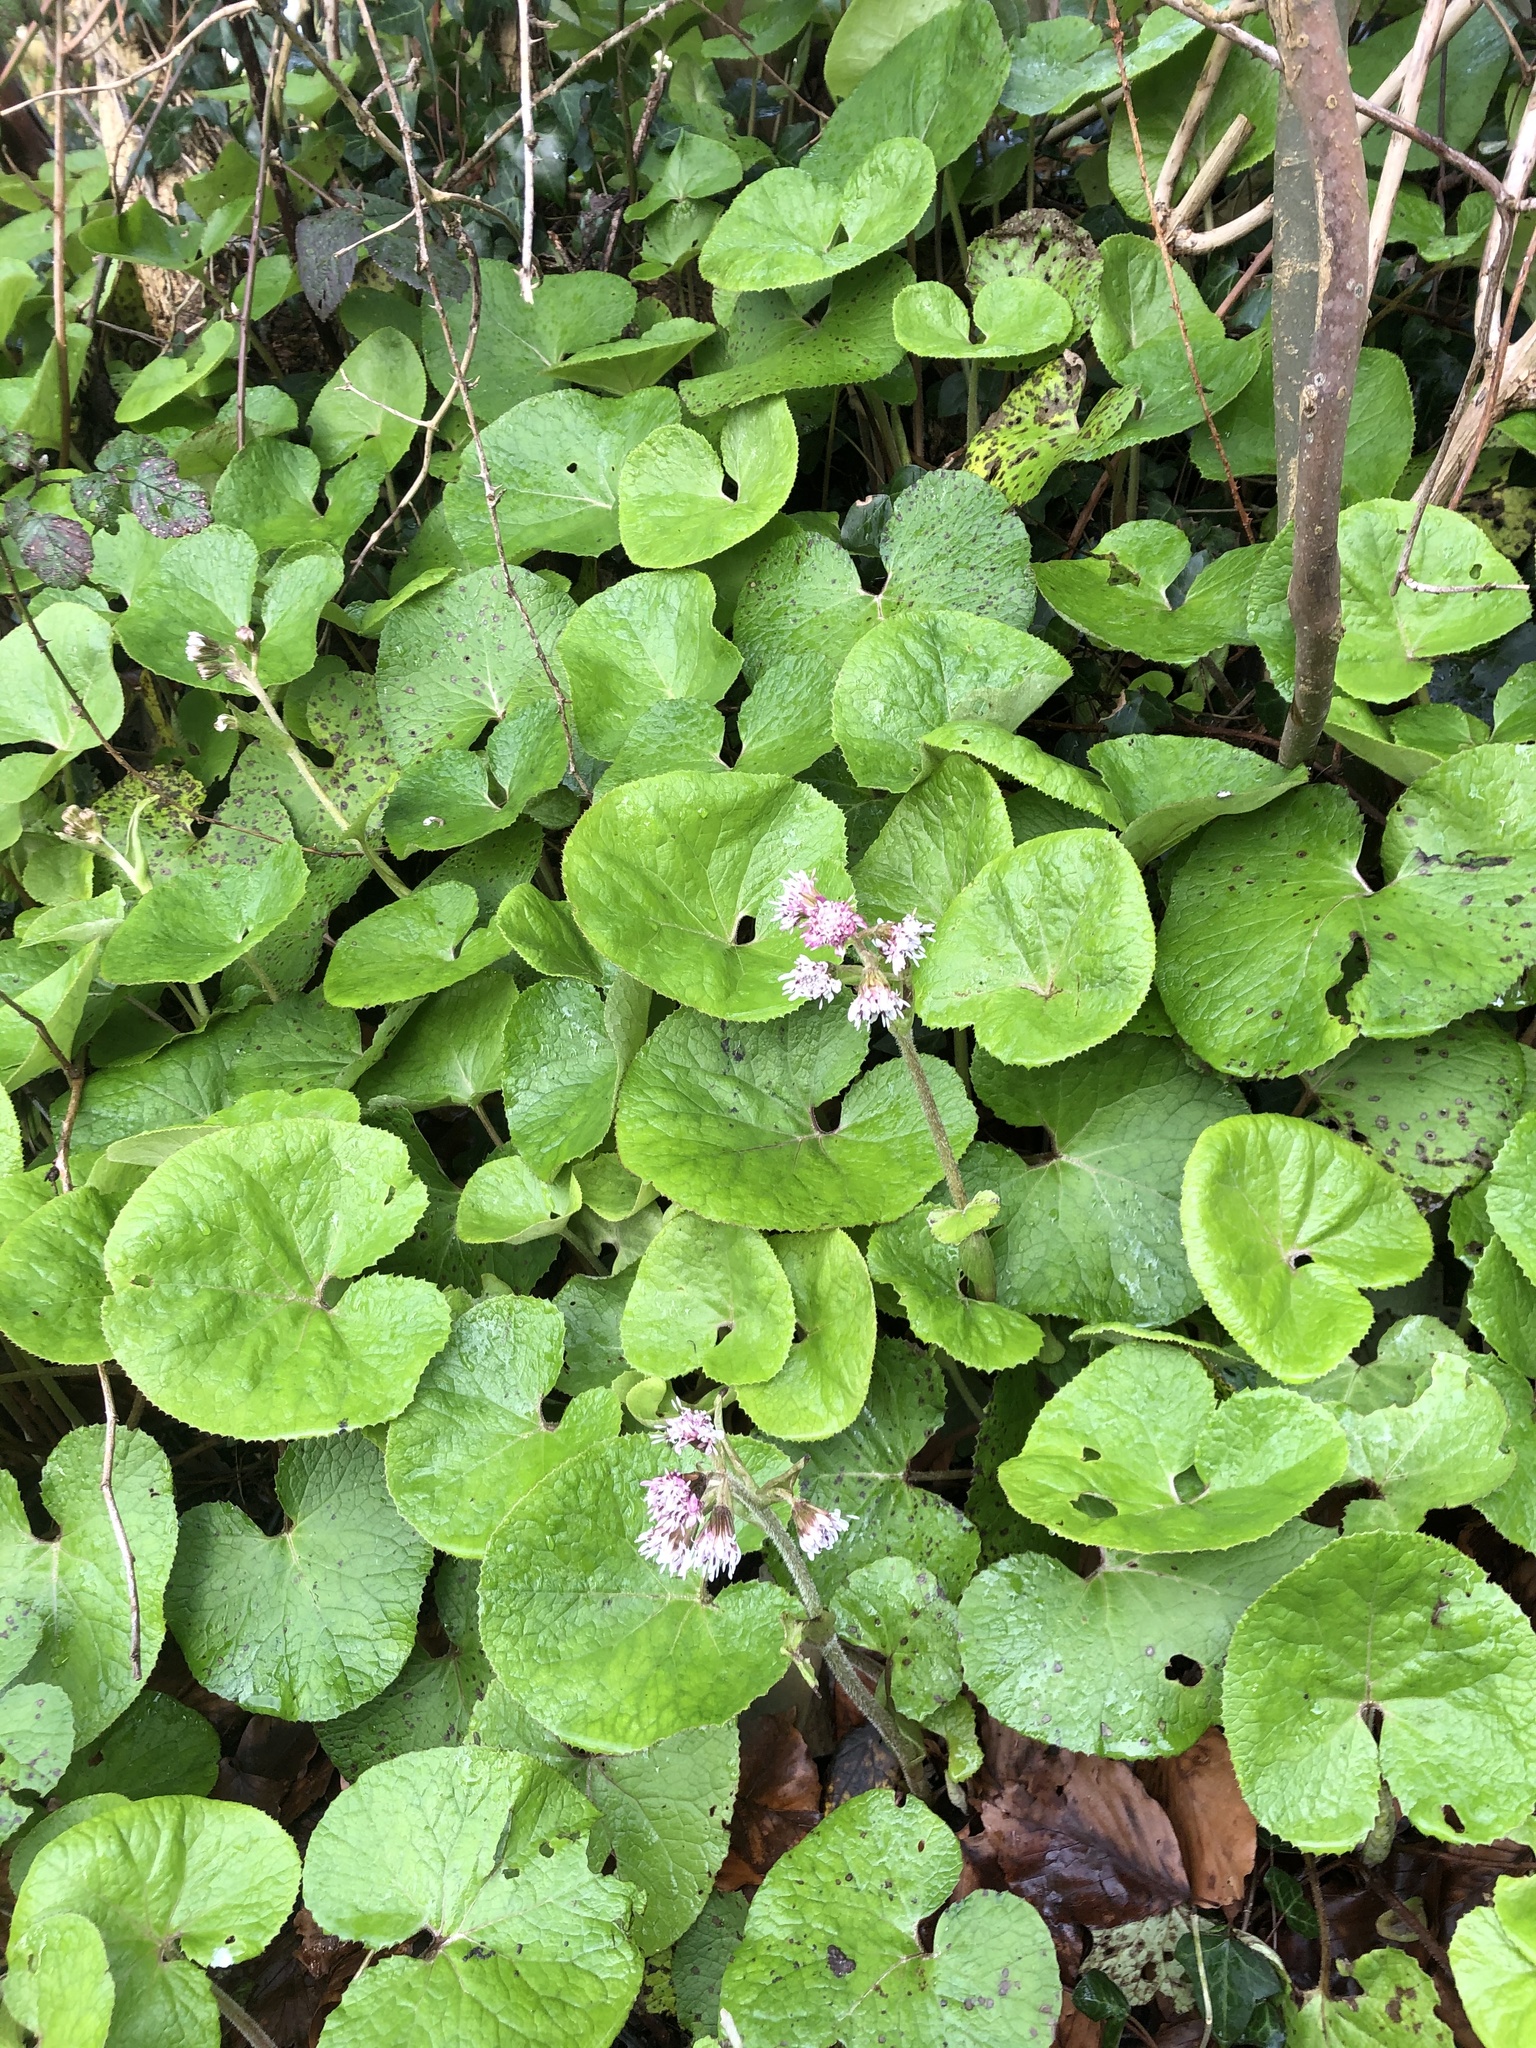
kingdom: Plantae
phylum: Tracheophyta
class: Magnoliopsida
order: Asterales
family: Asteraceae
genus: Petasites
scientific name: Petasites pyrenaicus
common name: Winter heliotrope
